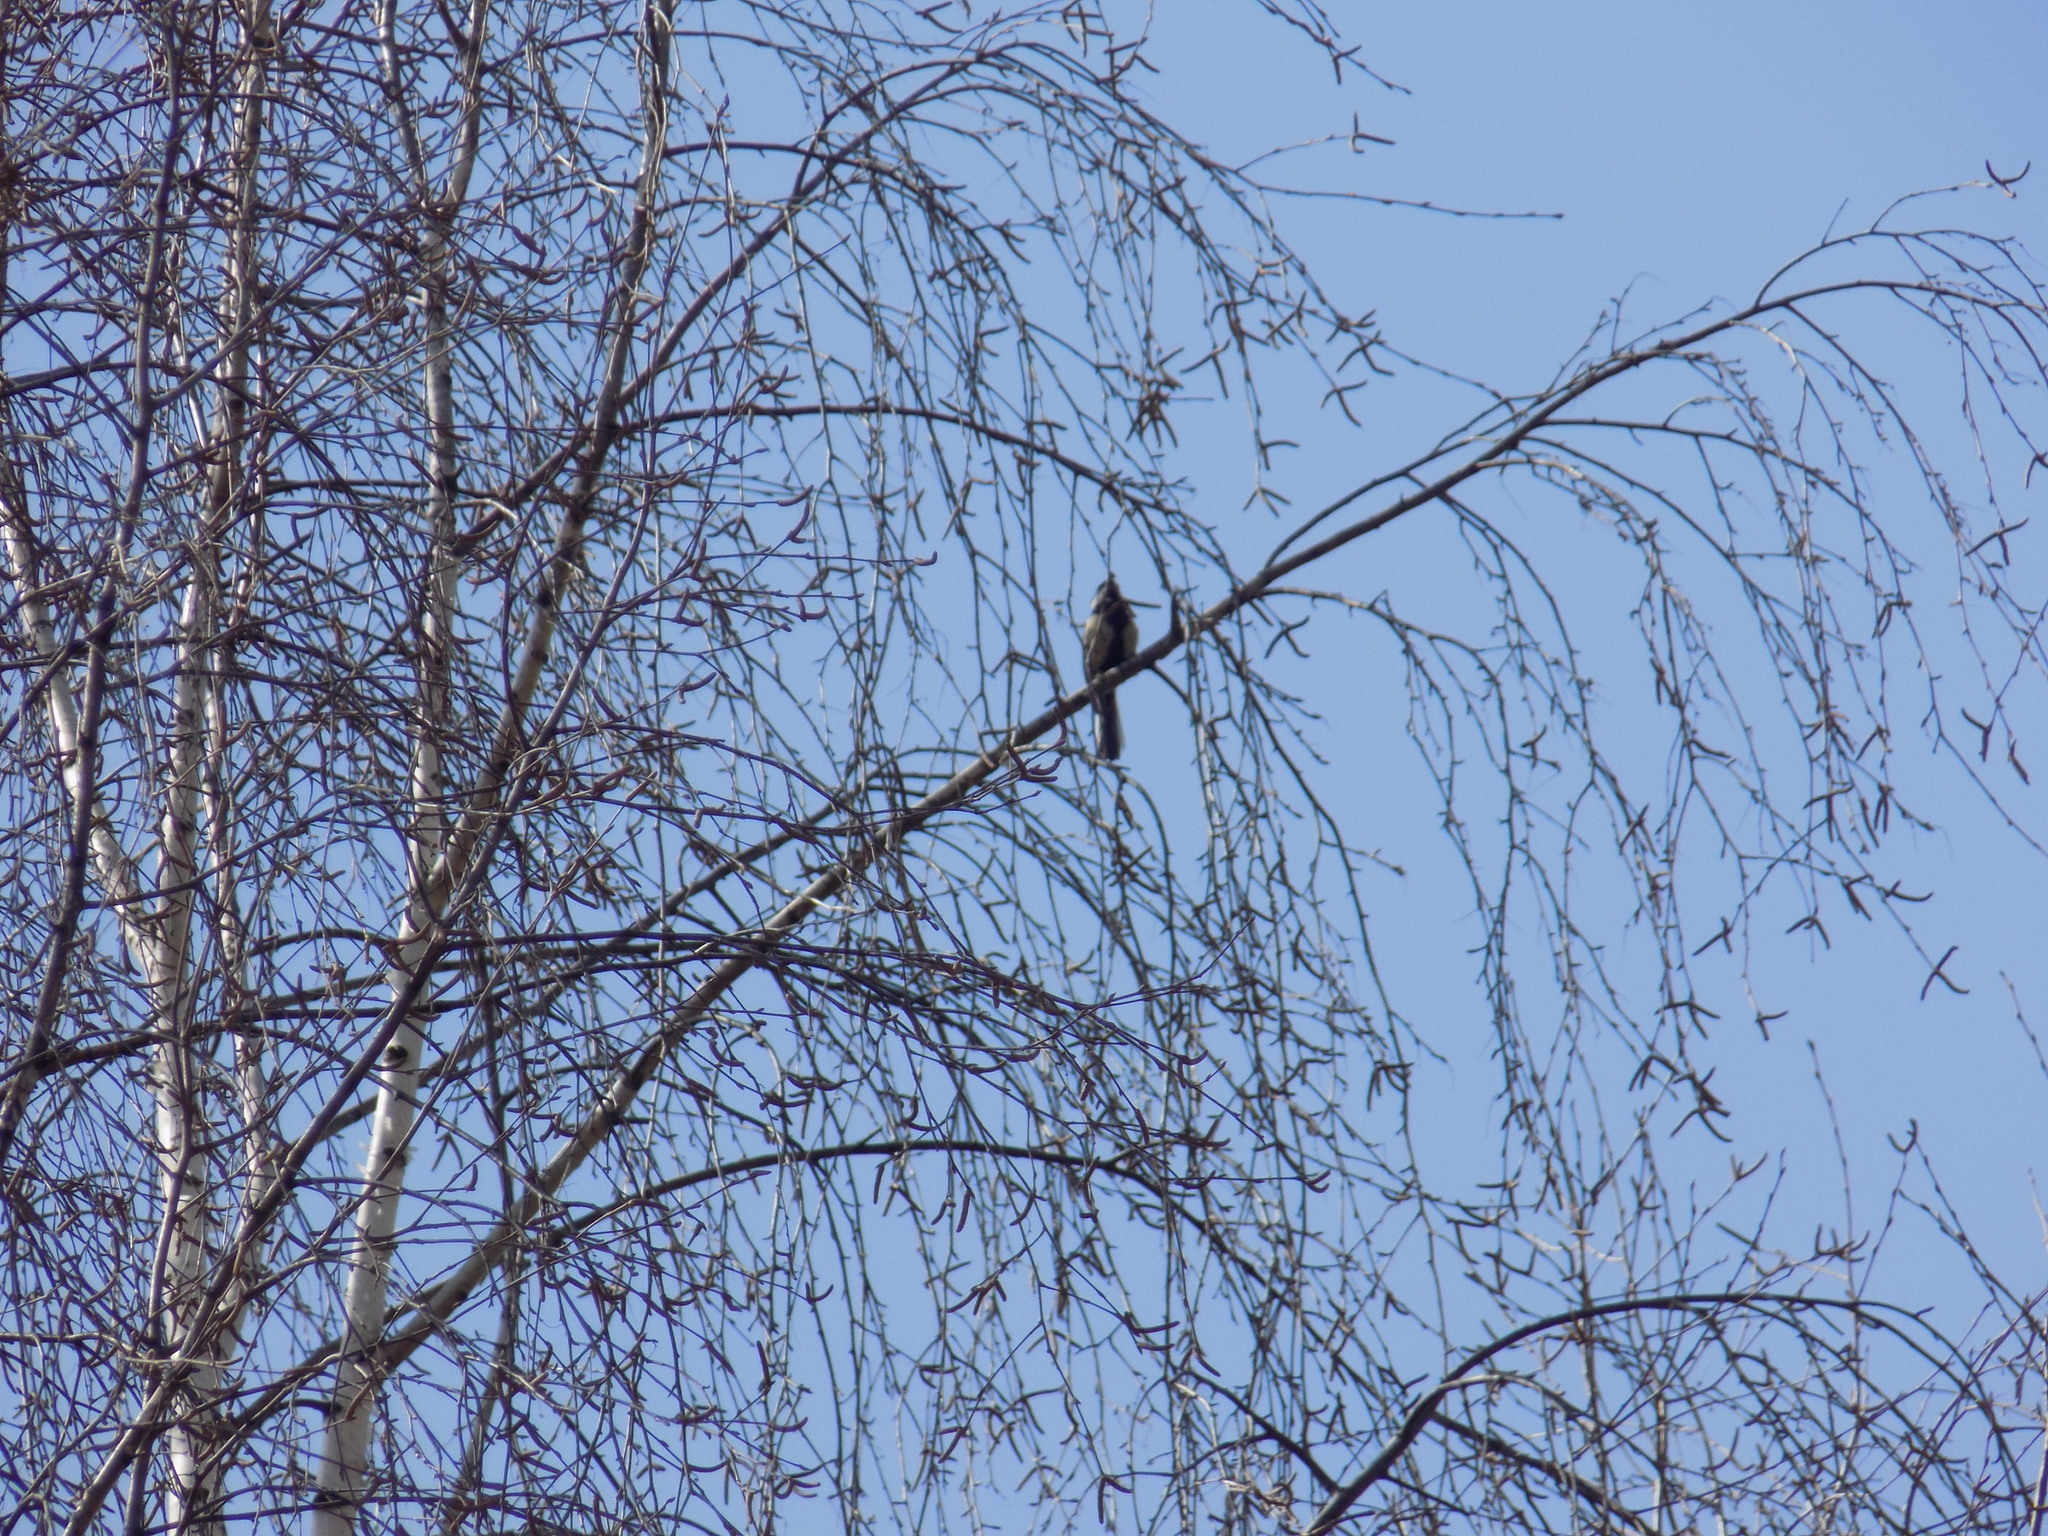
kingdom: Animalia
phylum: Chordata
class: Aves
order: Passeriformes
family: Paridae
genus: Parus
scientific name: Parus major
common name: Great tit
